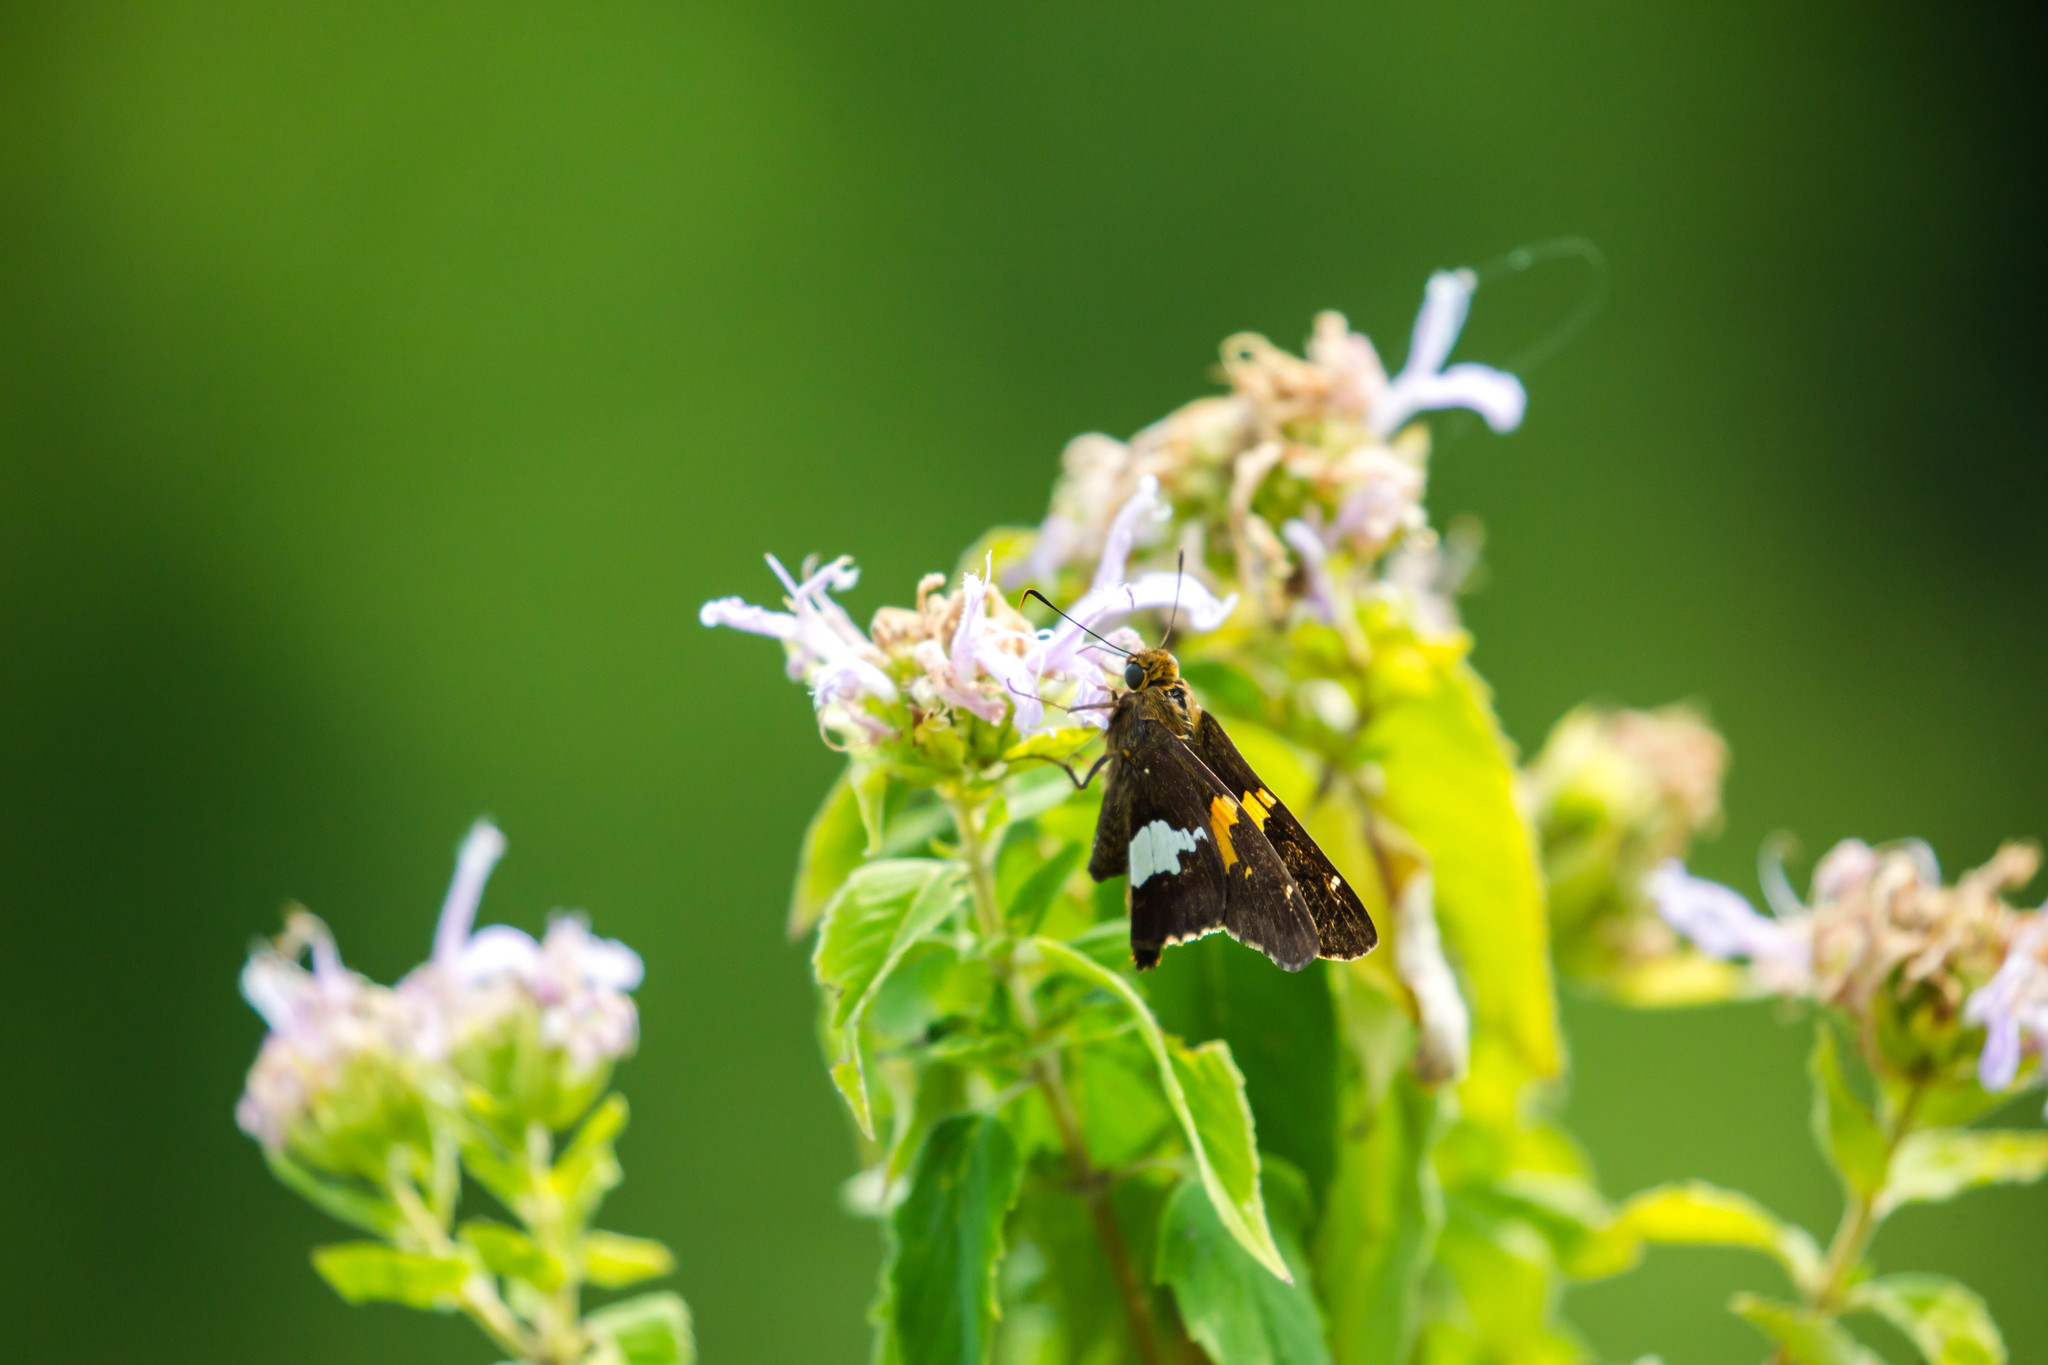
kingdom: Animalia
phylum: Arthropoda
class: Insecta
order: Lepidoptera
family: Hesperiidae
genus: Epargyreus
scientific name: Epargyreus clarus
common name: Silver-spotted skipper
